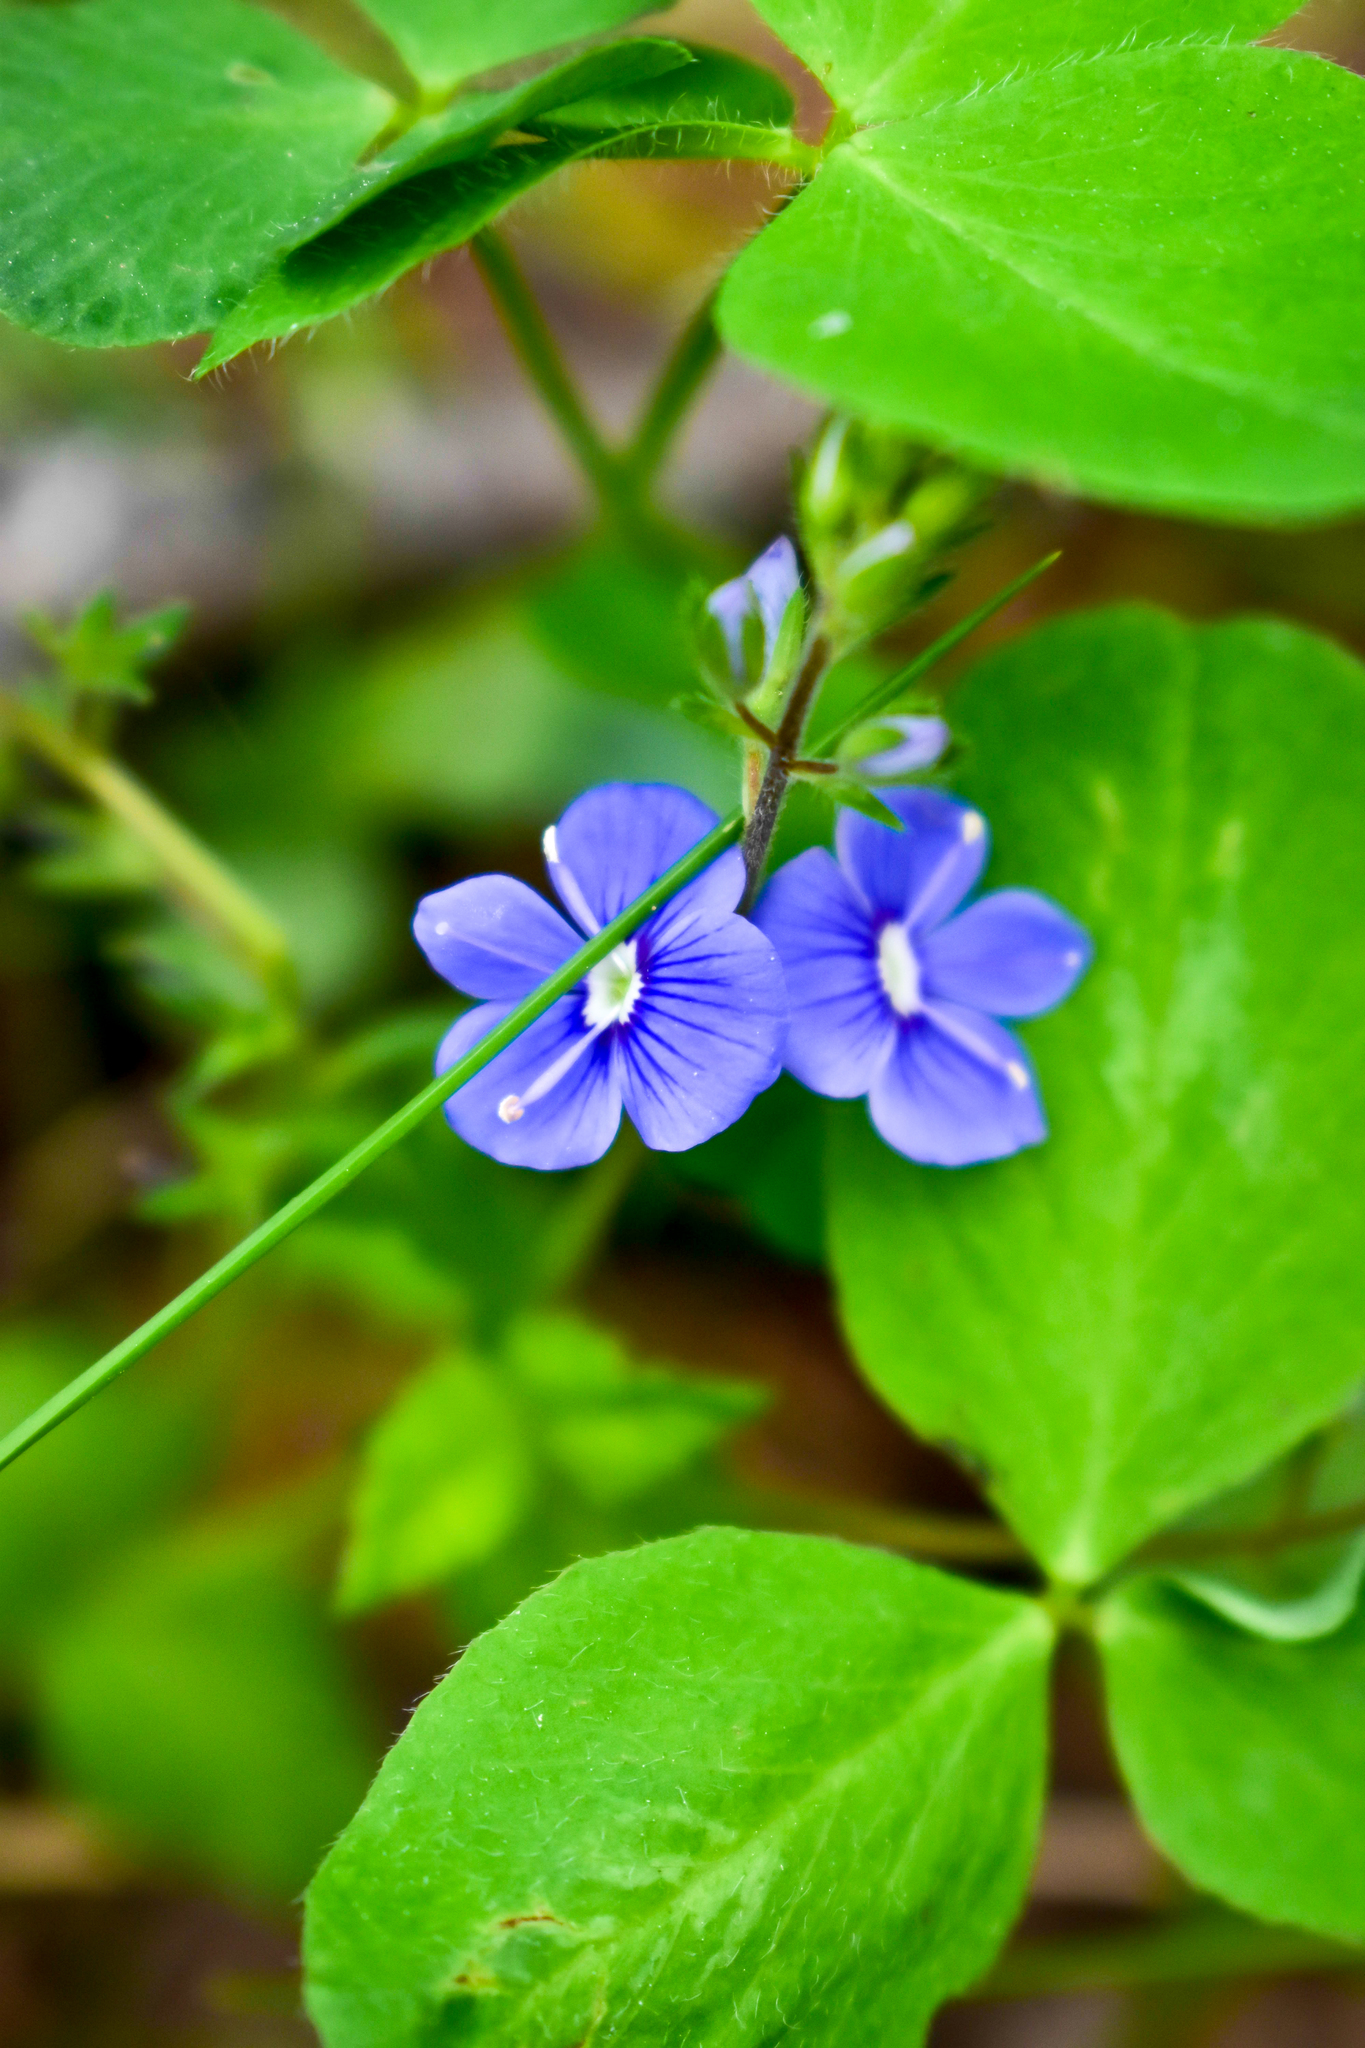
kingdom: Plantae
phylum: Tracheophyta
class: Magnoliopsida
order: Lamiales
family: Plantaginaceae
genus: Veronica
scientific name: Veronica chamaedrys
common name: Germander speedwell
